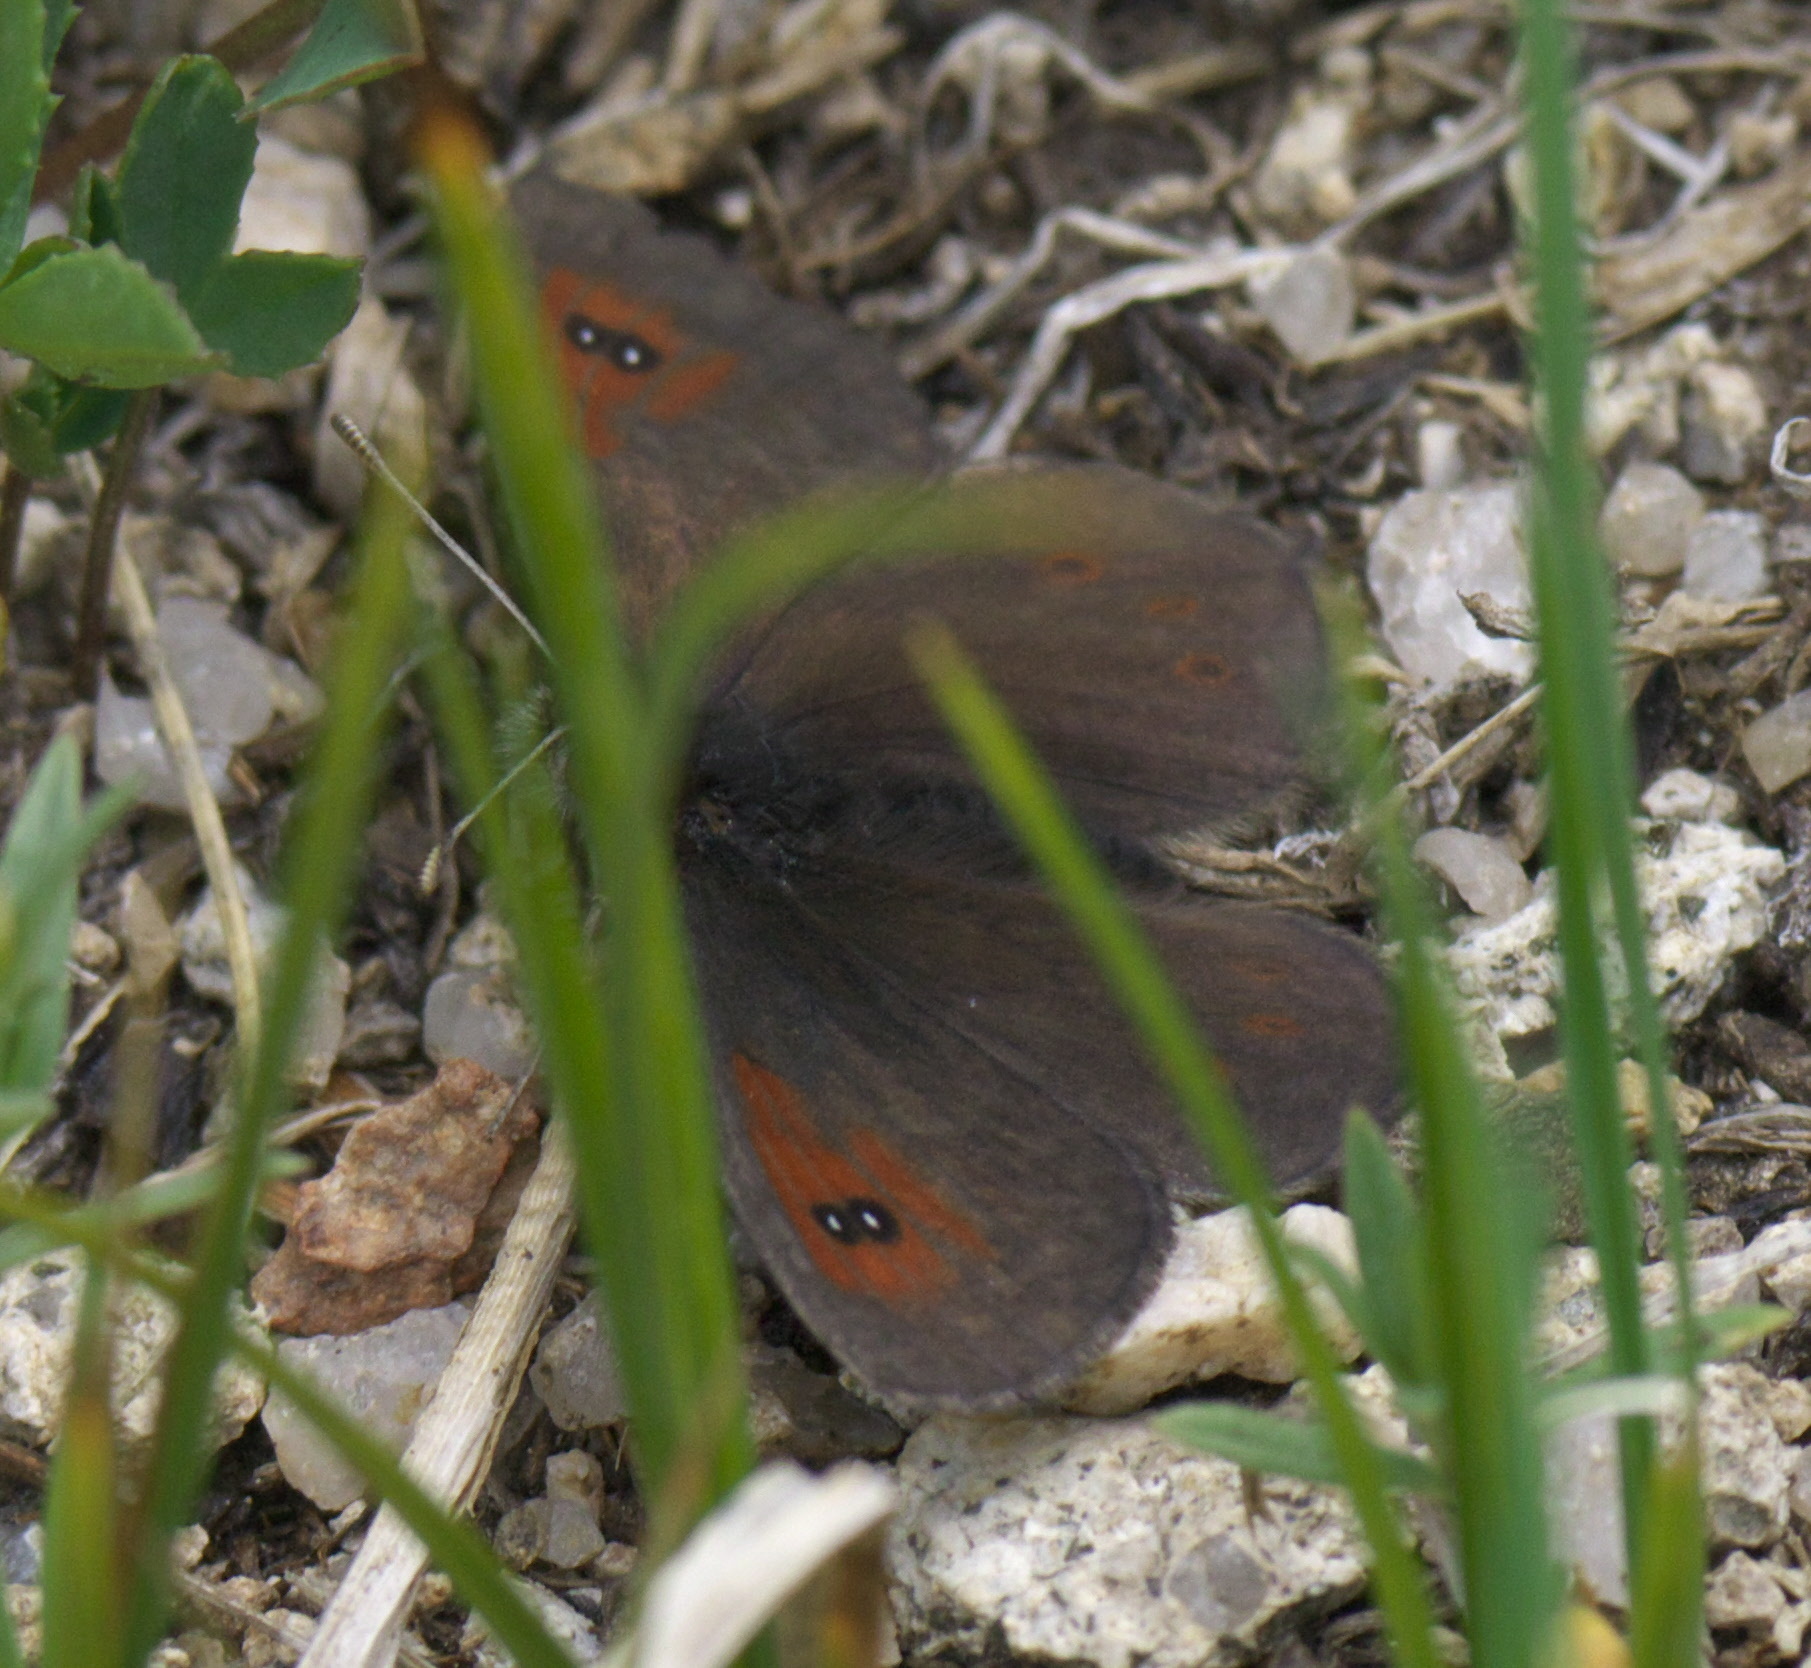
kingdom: Animalia
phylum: Arthropoda
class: Insecta
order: Lepidoptera
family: Nymphalidae
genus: Erebia
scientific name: Erebia tyndarus
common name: Swiss brassy ringlet
